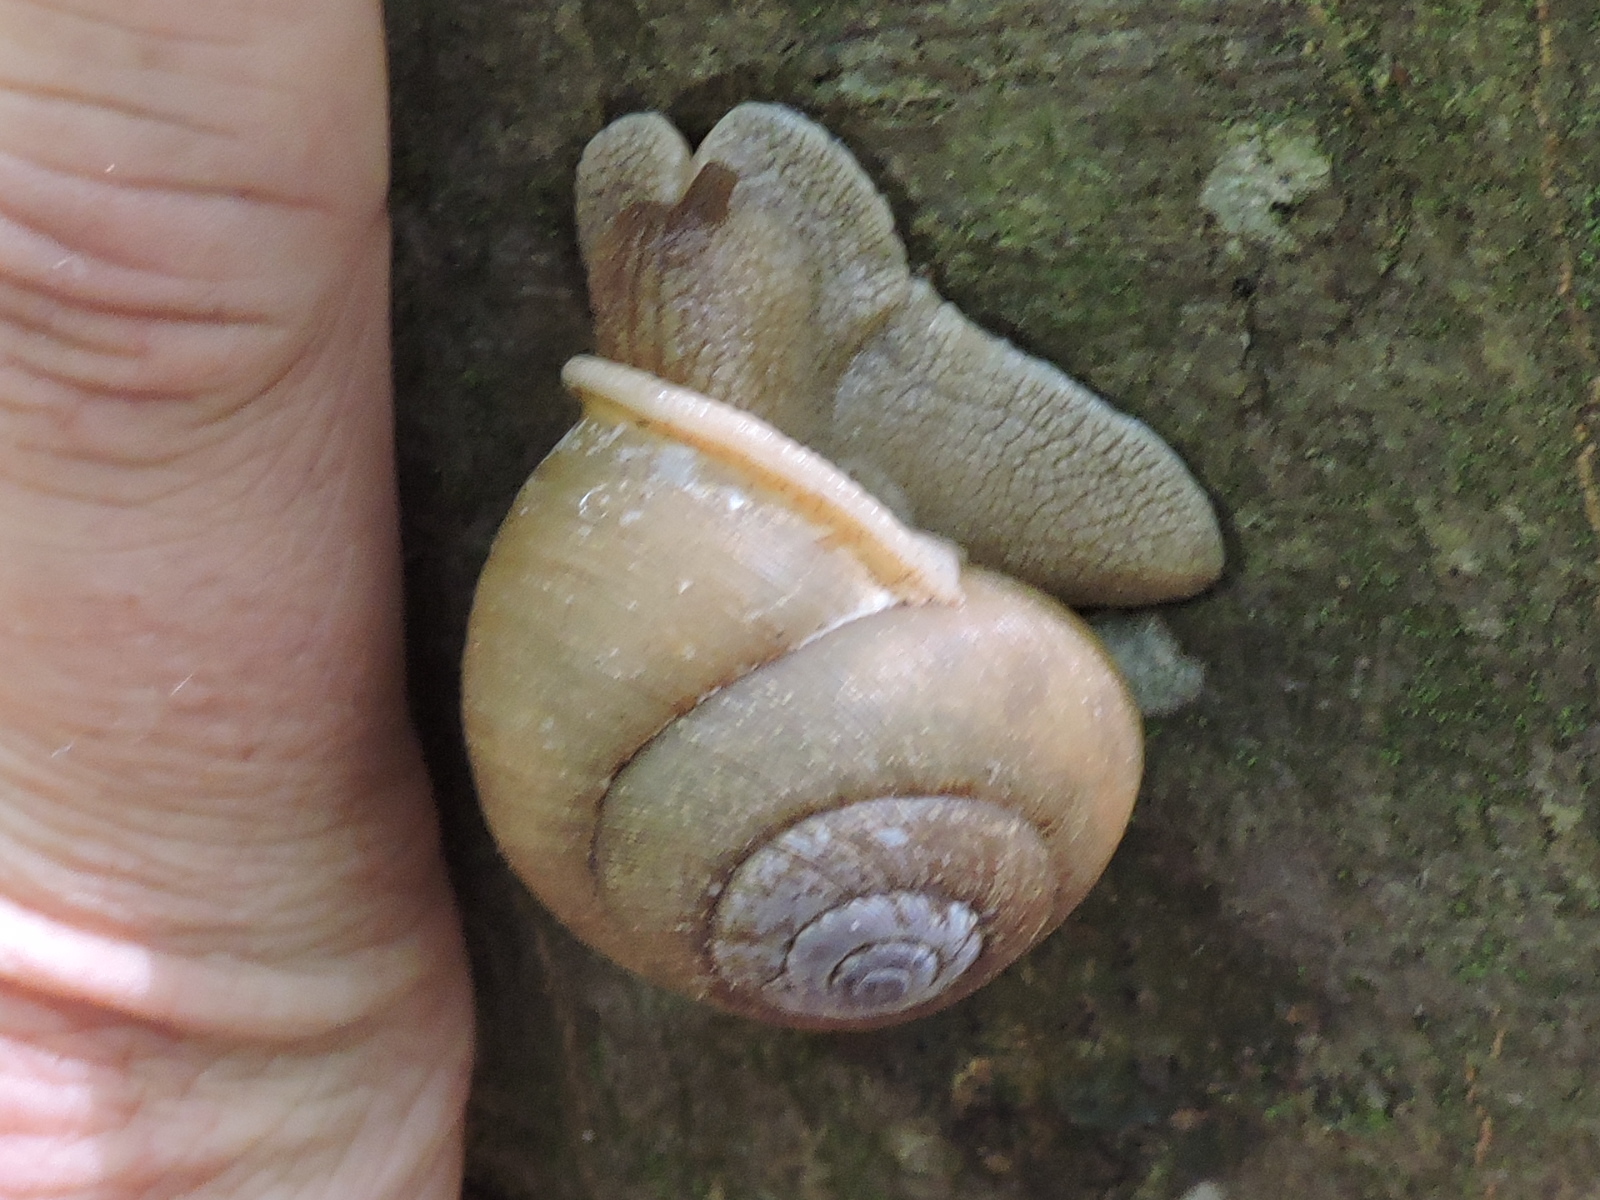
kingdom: Animalia
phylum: Mollusca
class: Gastropoda
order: Stylommatophora
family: Polygyridae
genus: Neohelix
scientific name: Neohelix albolabris
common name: Eastern whitelip
